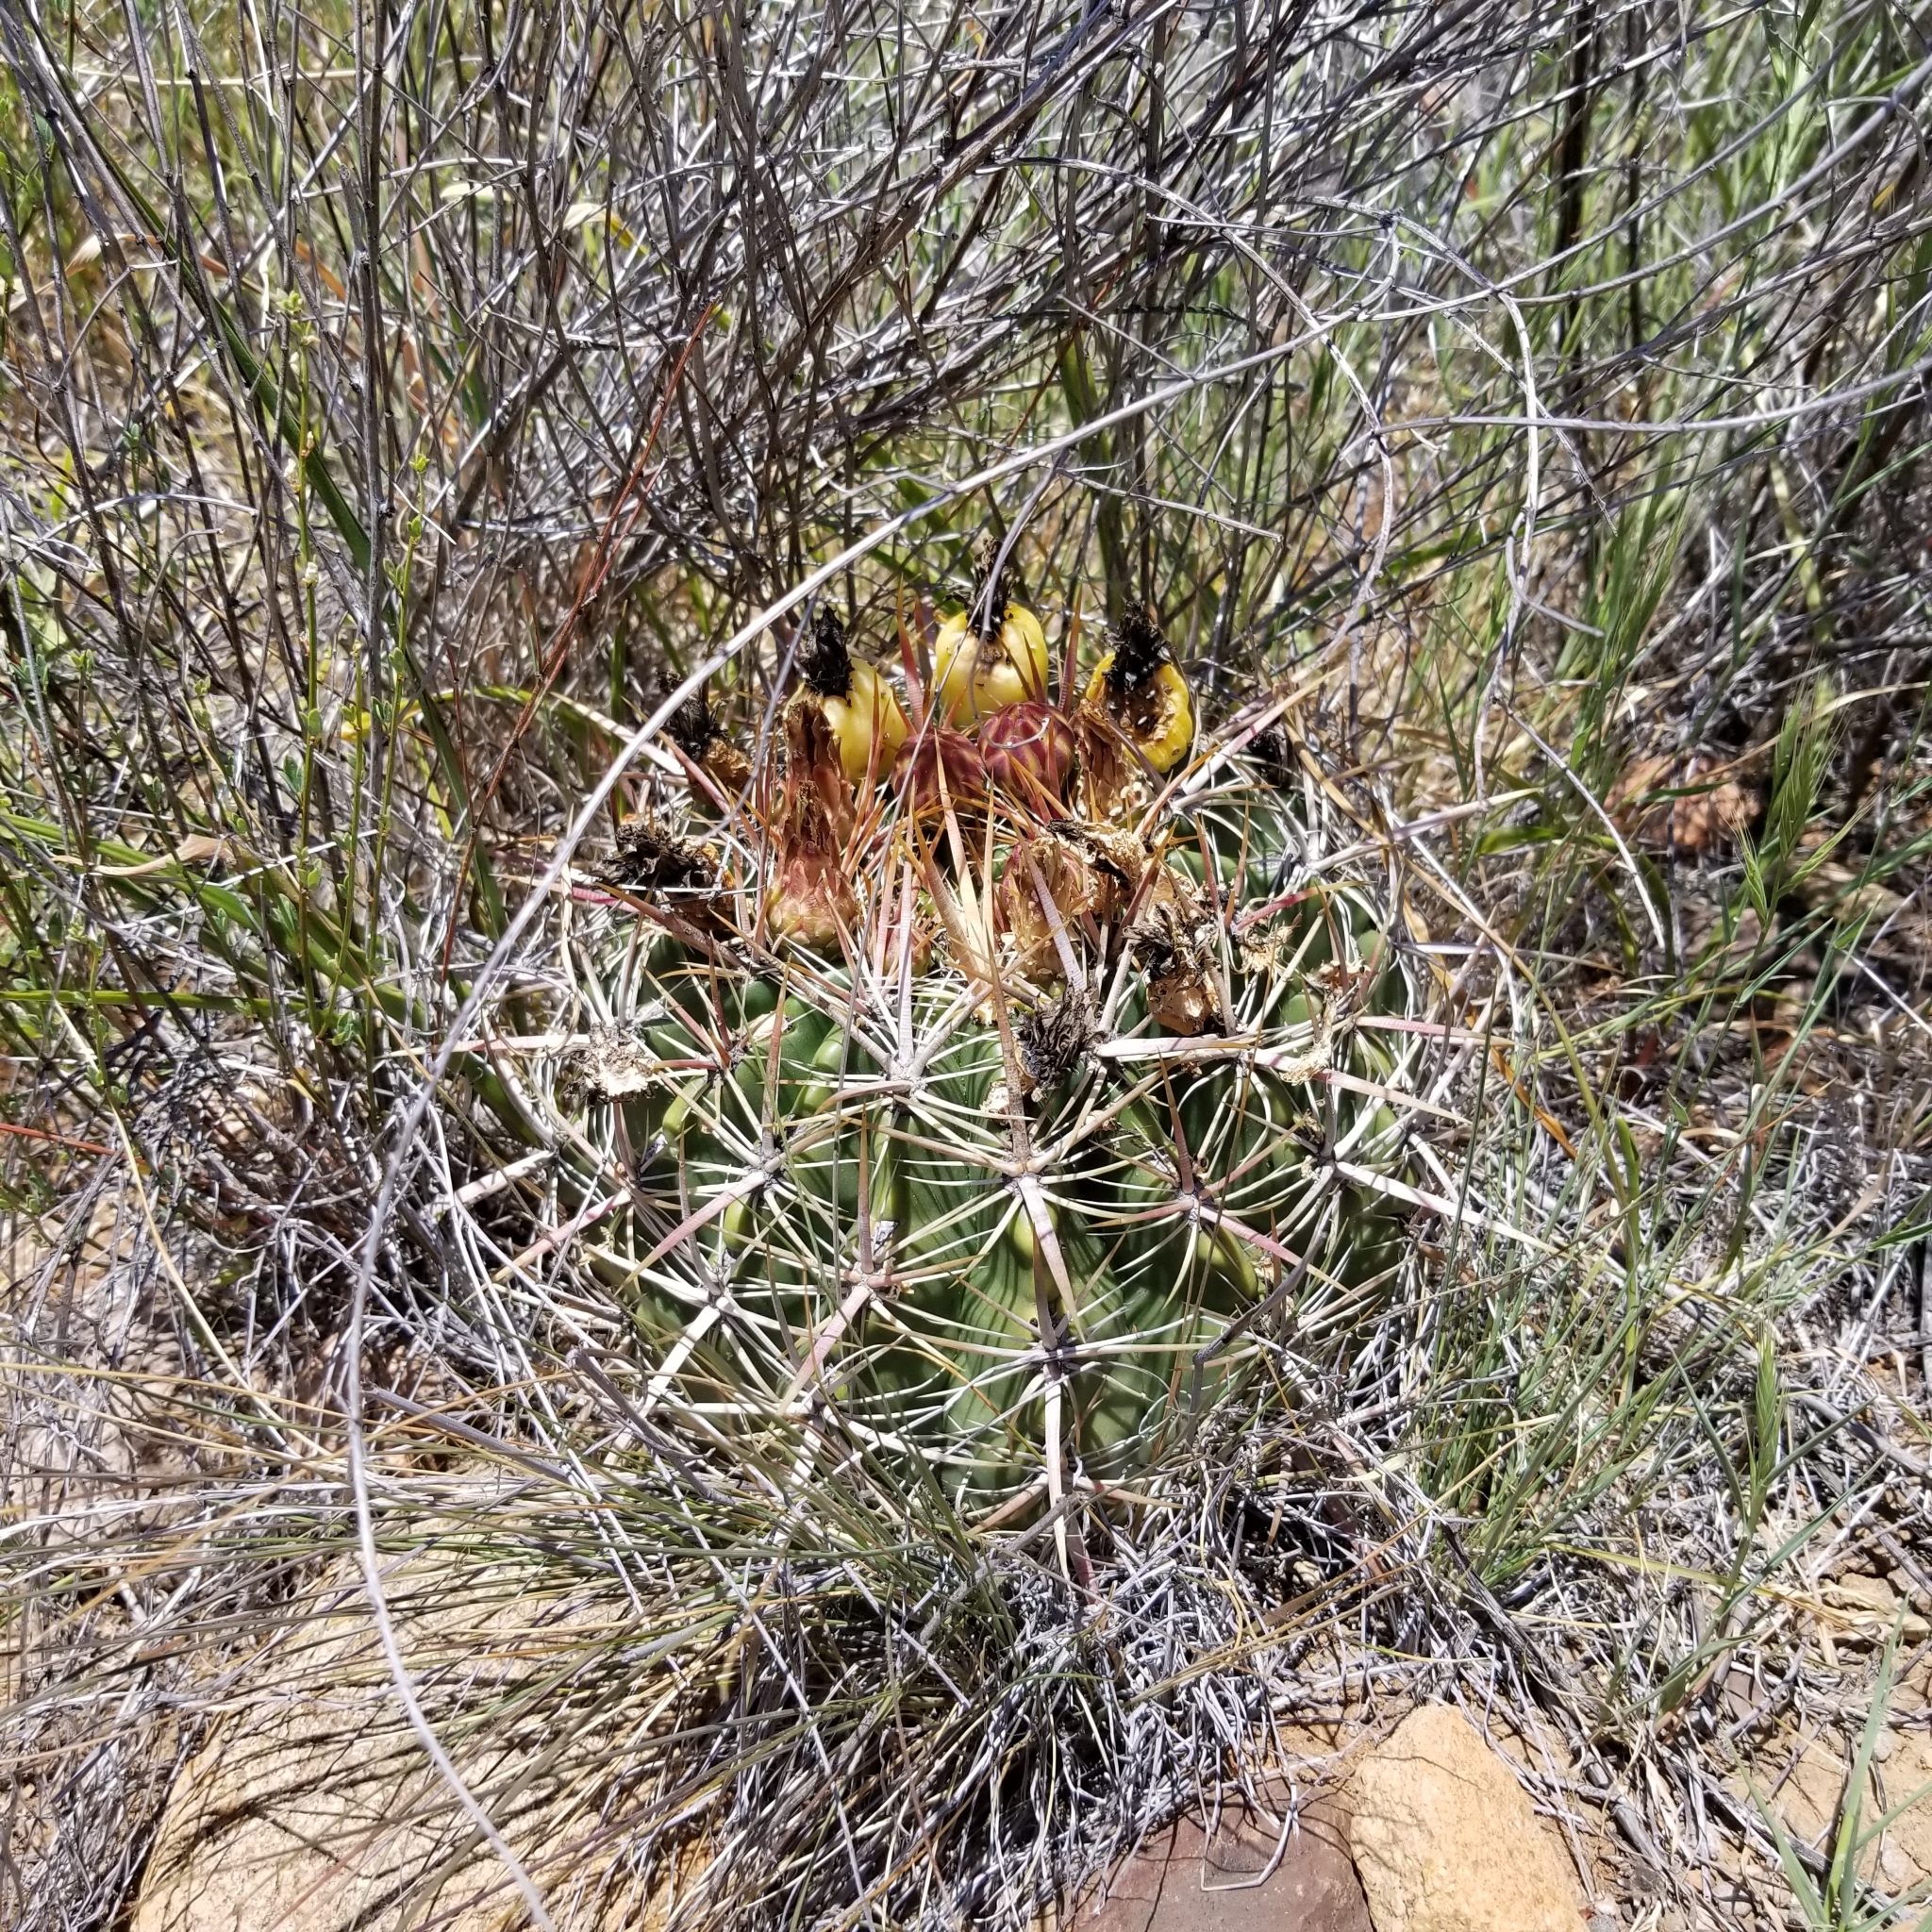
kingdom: Plantae
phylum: Tracheophyta
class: Magnoliopsida
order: Caryophyllales
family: Cactaceae
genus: Ferocactus
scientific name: Ferocactus viridescens
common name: San diego barrel cactus
